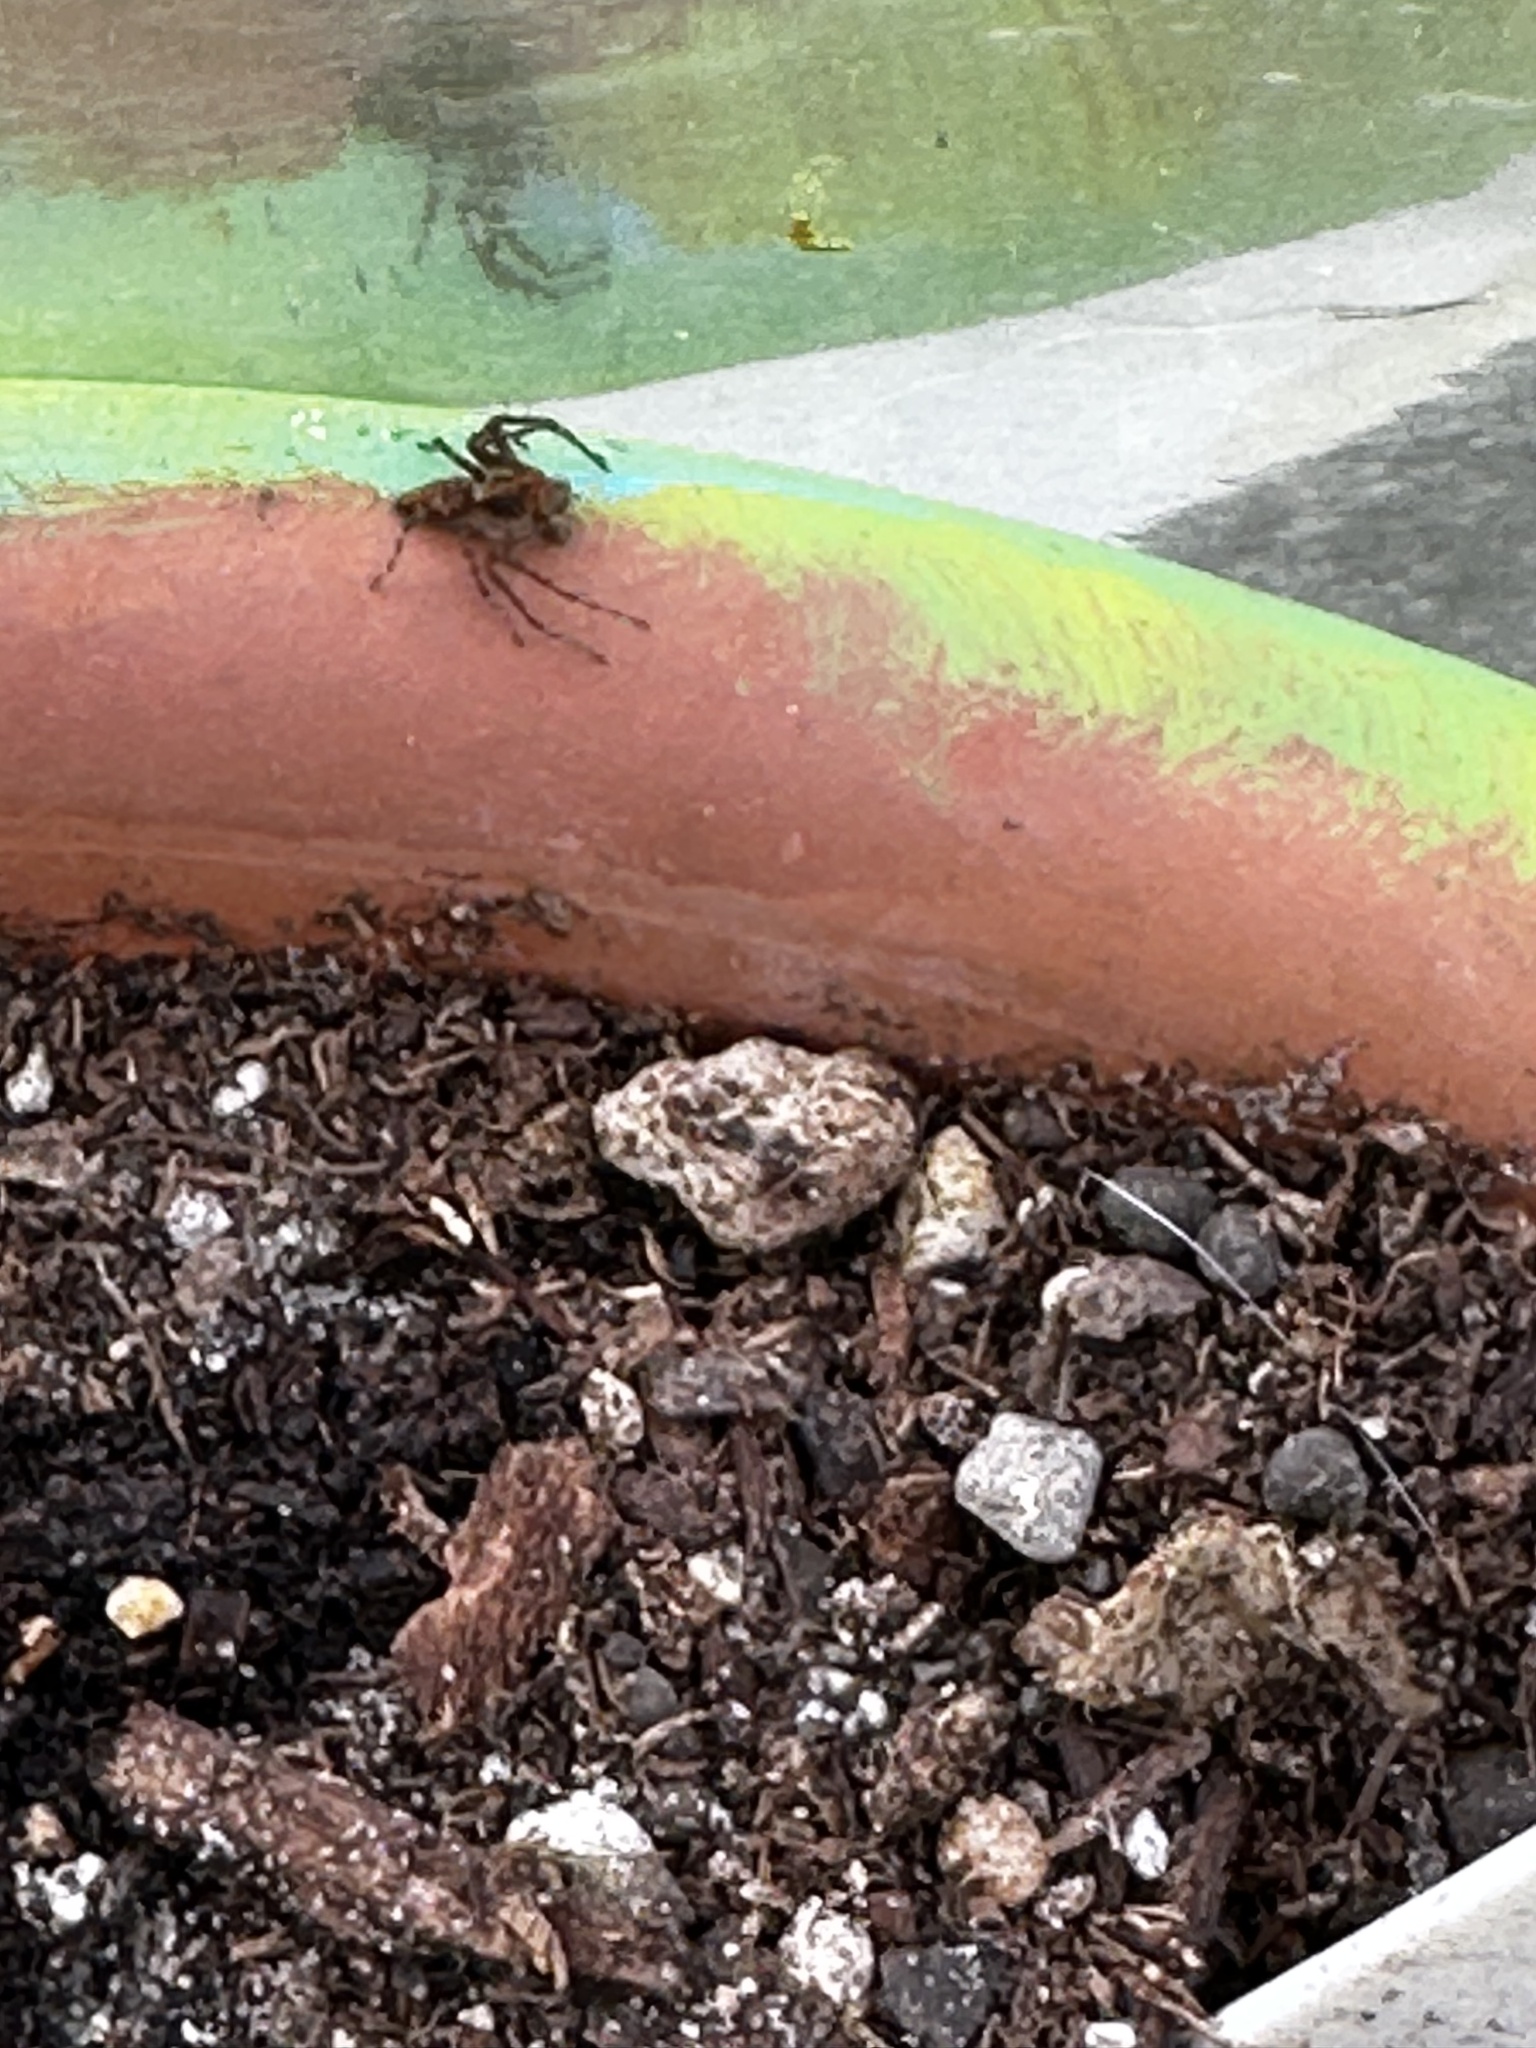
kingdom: Animalia
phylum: Arthropoda
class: Arachnida
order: Araneae
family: Oxyopidae
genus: Oxyopes
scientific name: Oxyopes scalaris
